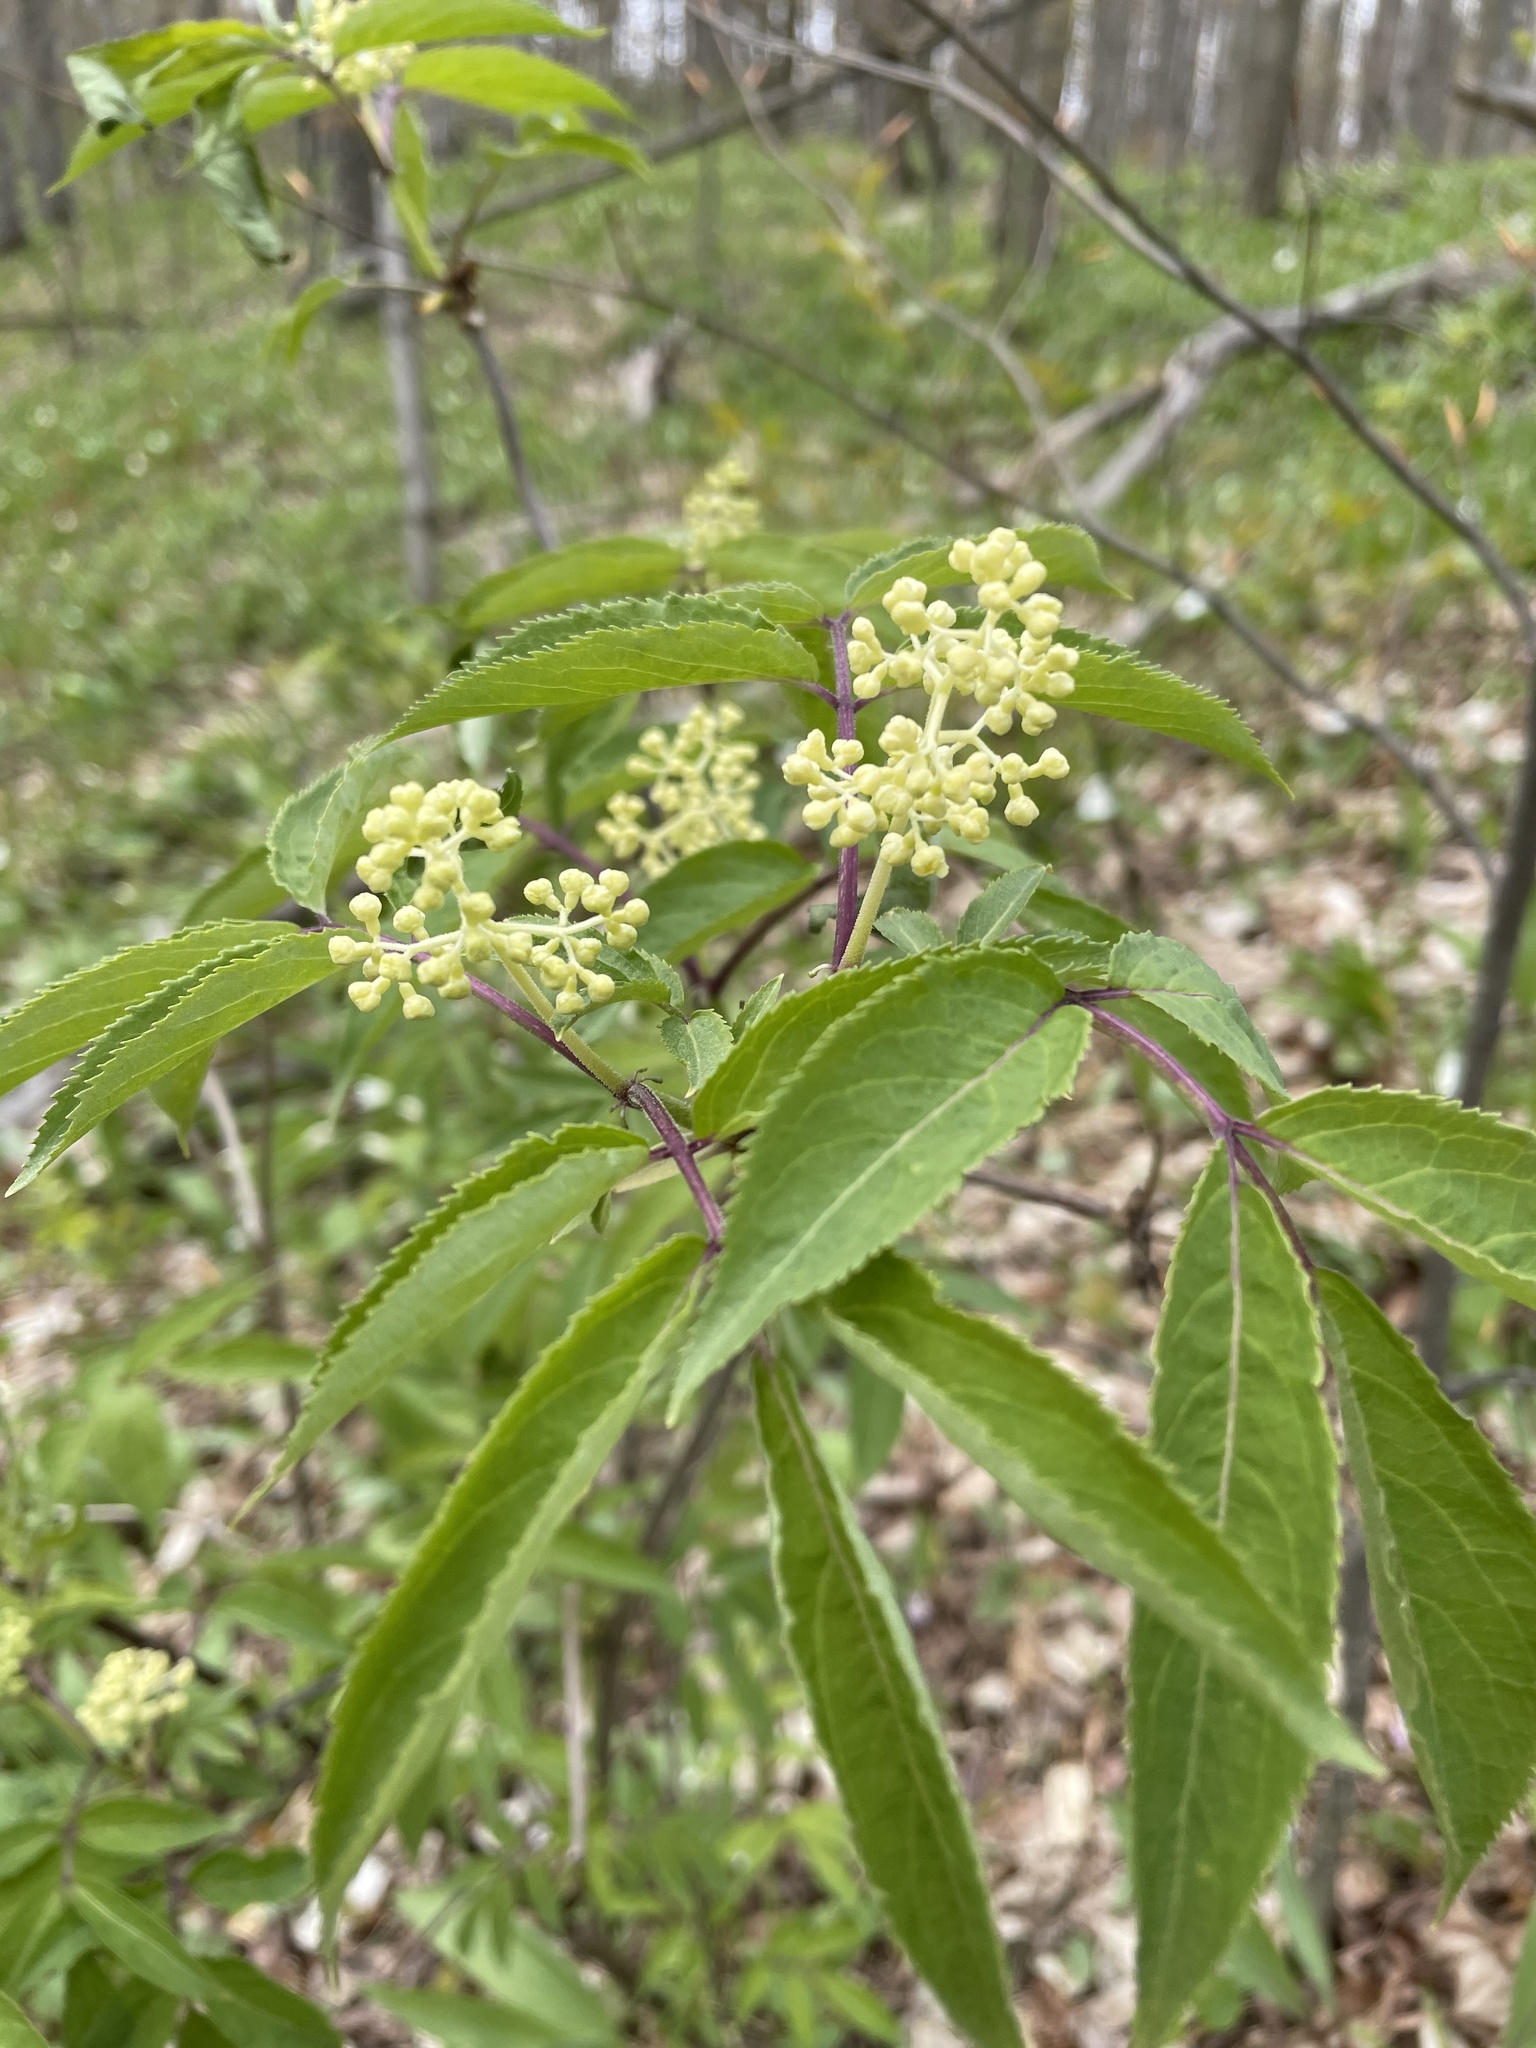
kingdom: Plantae
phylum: Tracheophyta
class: Magnoliopsida
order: Dipsacales
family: Viburnaceae
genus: Sambucus
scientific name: Sambucus racemosa
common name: Red-berried elder
